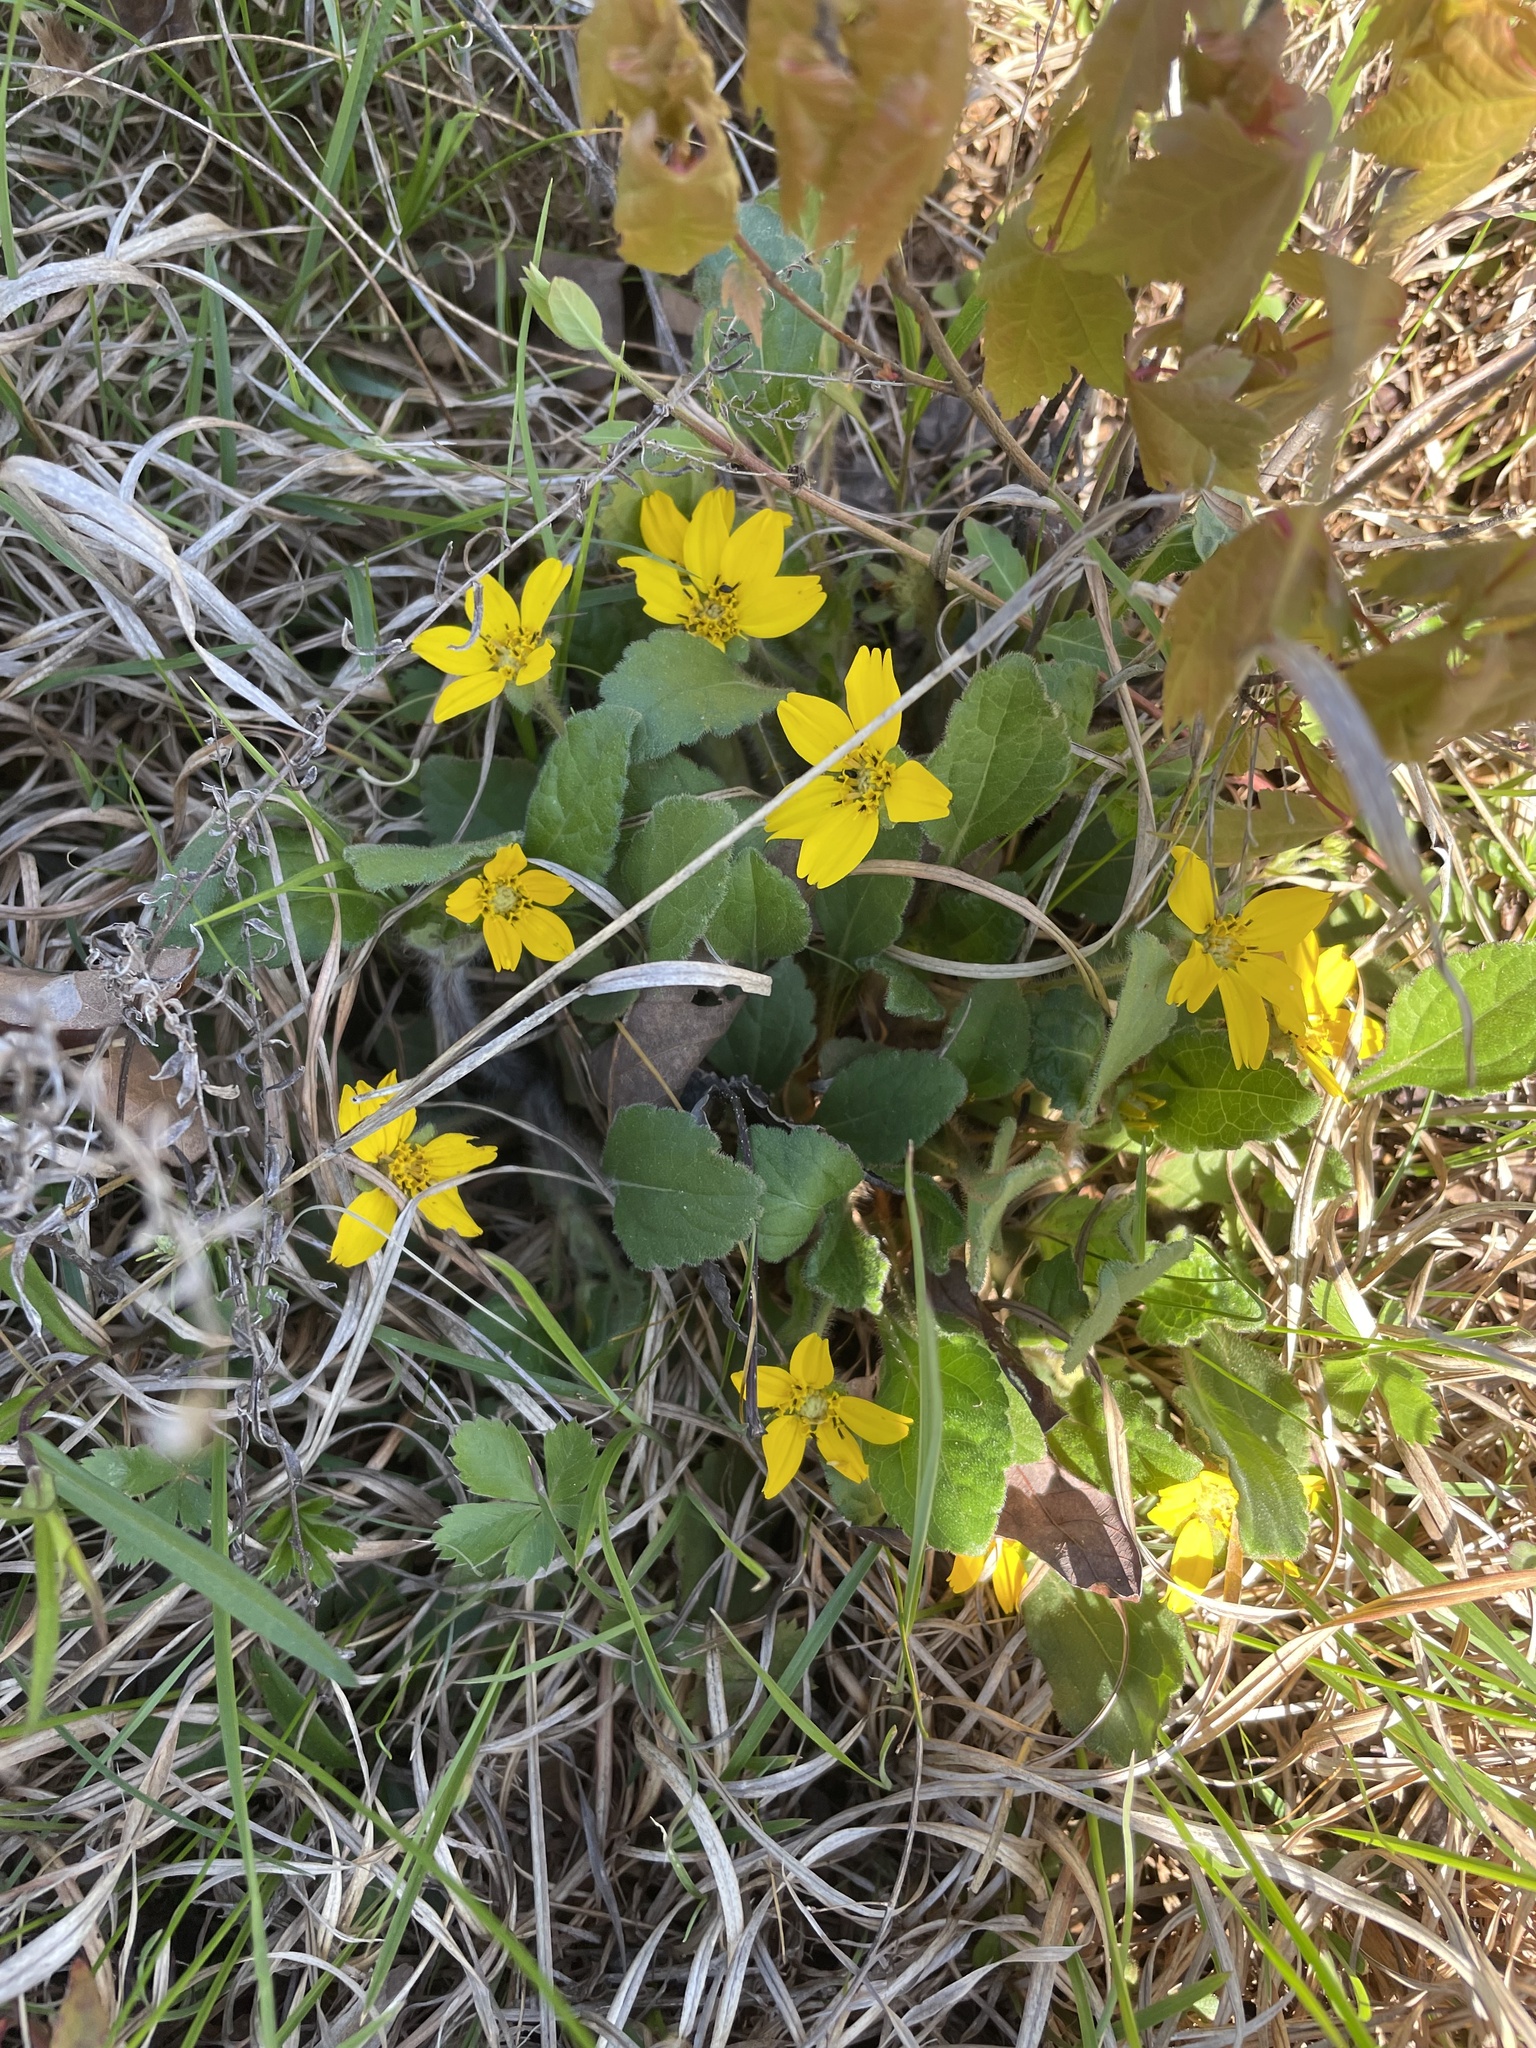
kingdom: Plantae
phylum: Tracheophyta
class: Magnoliopsida
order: Asterales
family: Asteraceae
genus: Chrysogonum
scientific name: Chrysogonum virginianum
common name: Golden-knee
